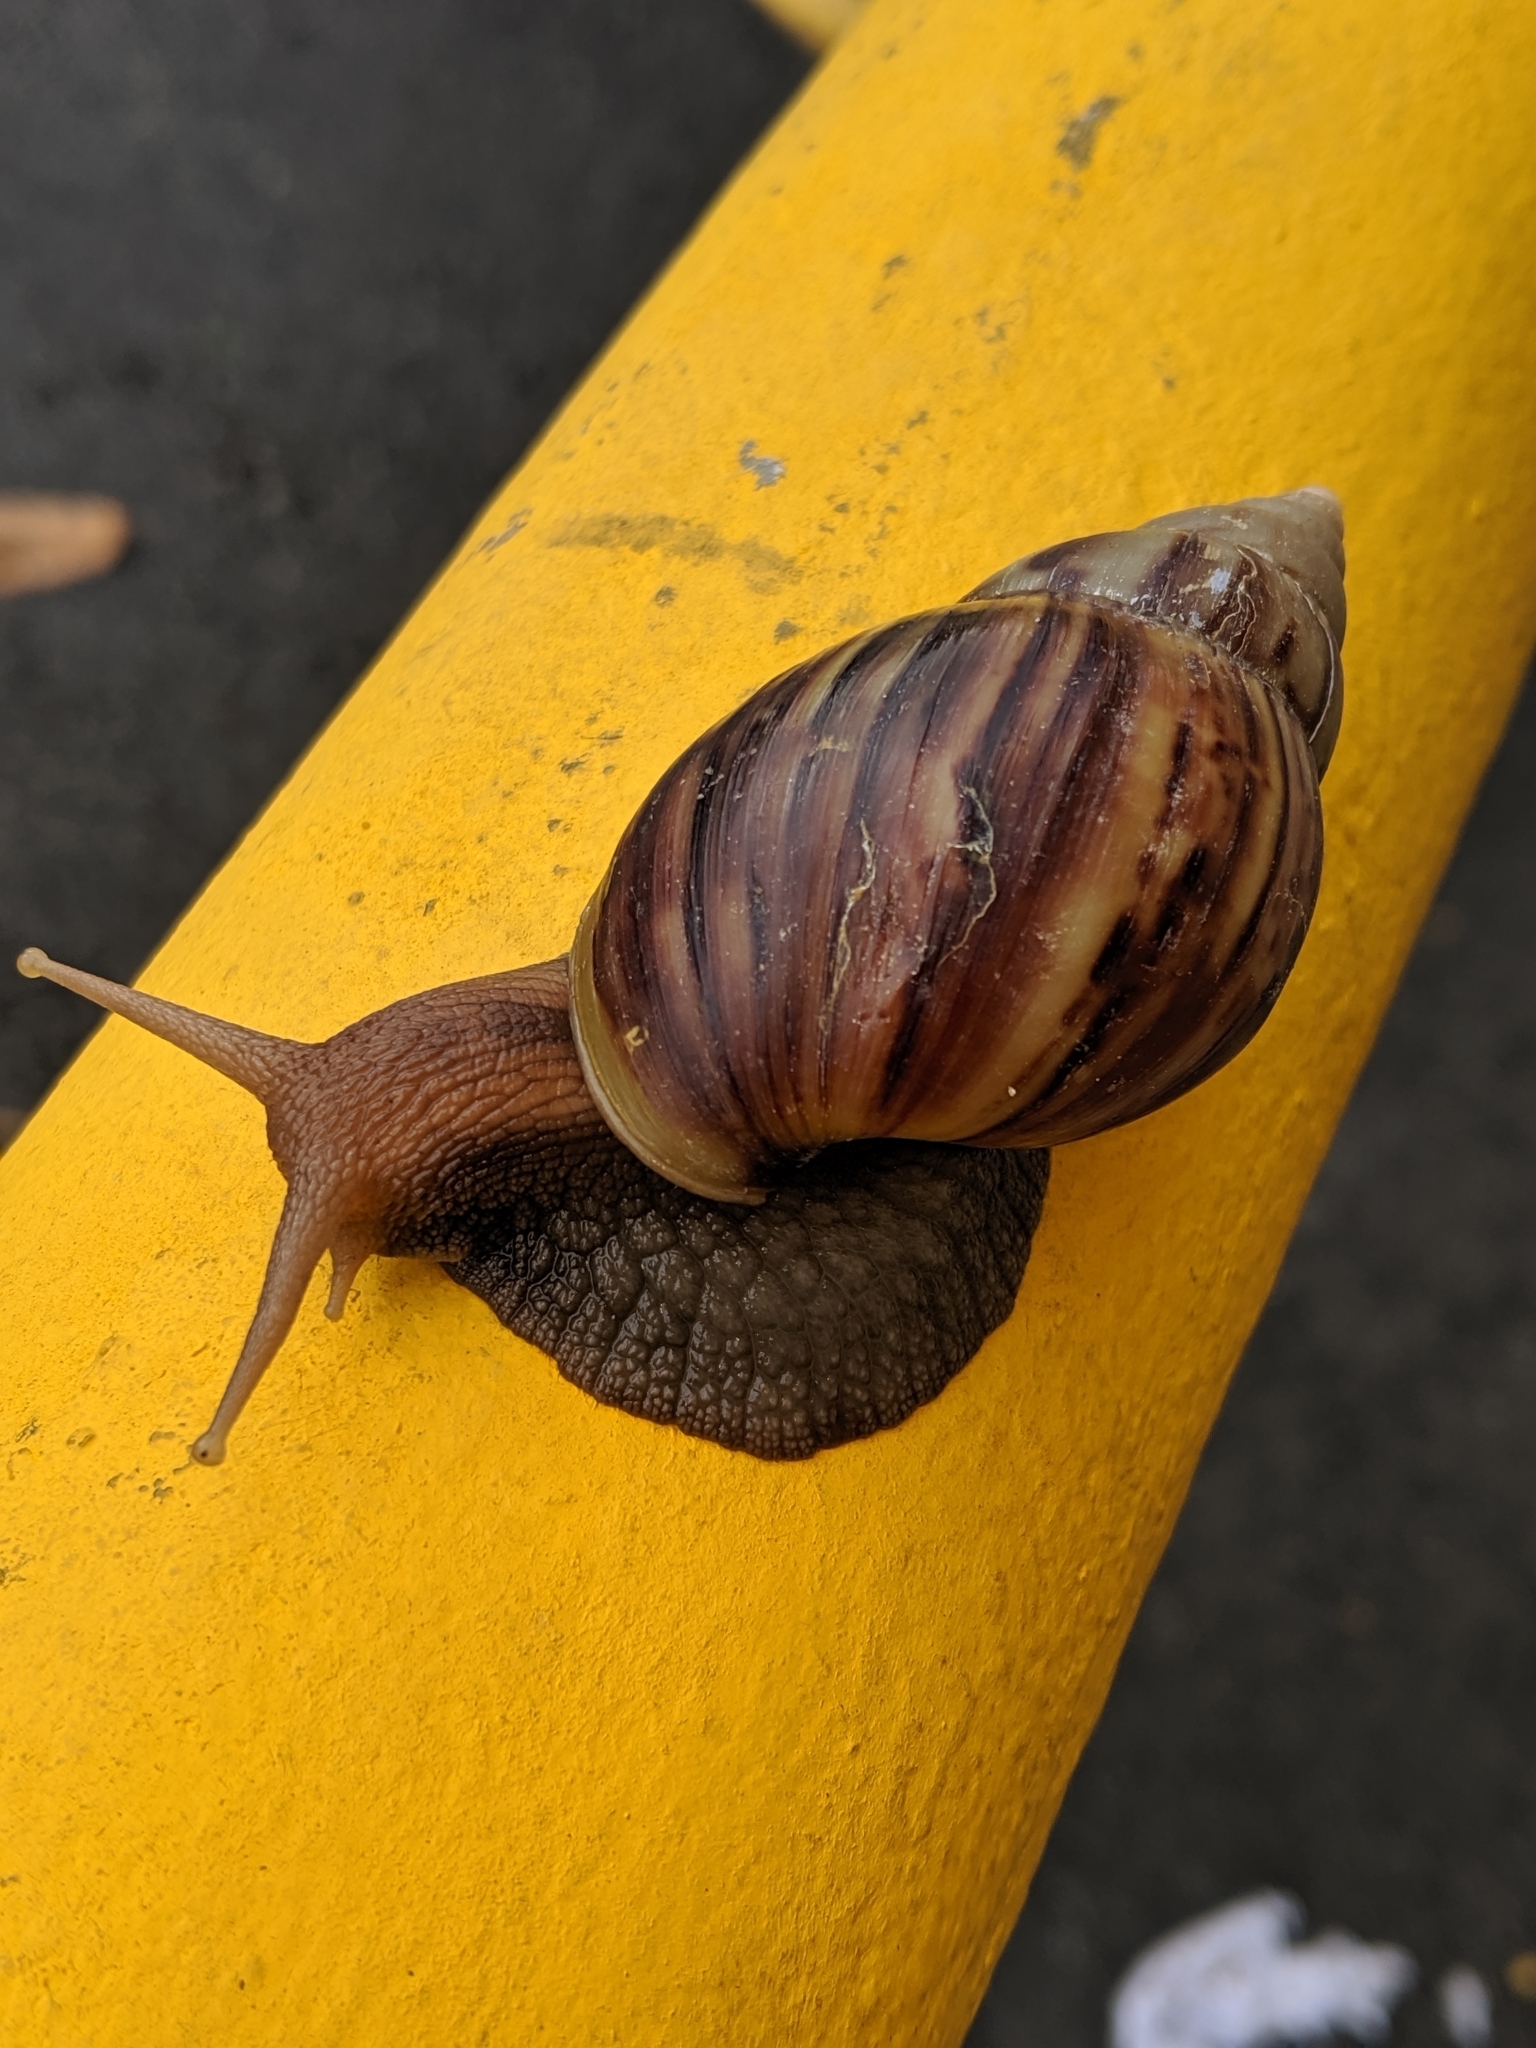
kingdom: Animalia
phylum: Mollusca
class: Gastropoda
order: Stylommatophora
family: Achatinidae
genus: Lissachatina
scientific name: Lissachatina fulica
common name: Giant african snail
